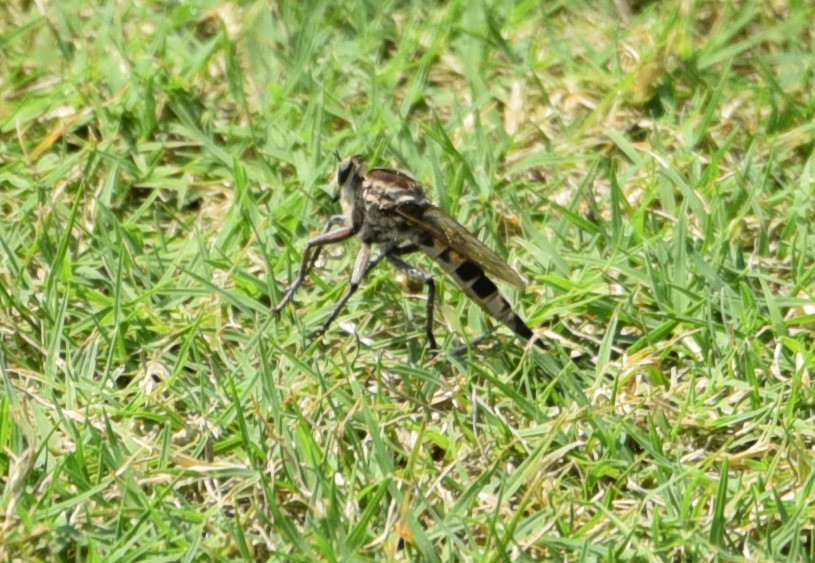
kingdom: Animalia
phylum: Arthropoda
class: Insecta
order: Diptera
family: Asilidae
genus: Triorla
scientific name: Triorla interrupta
